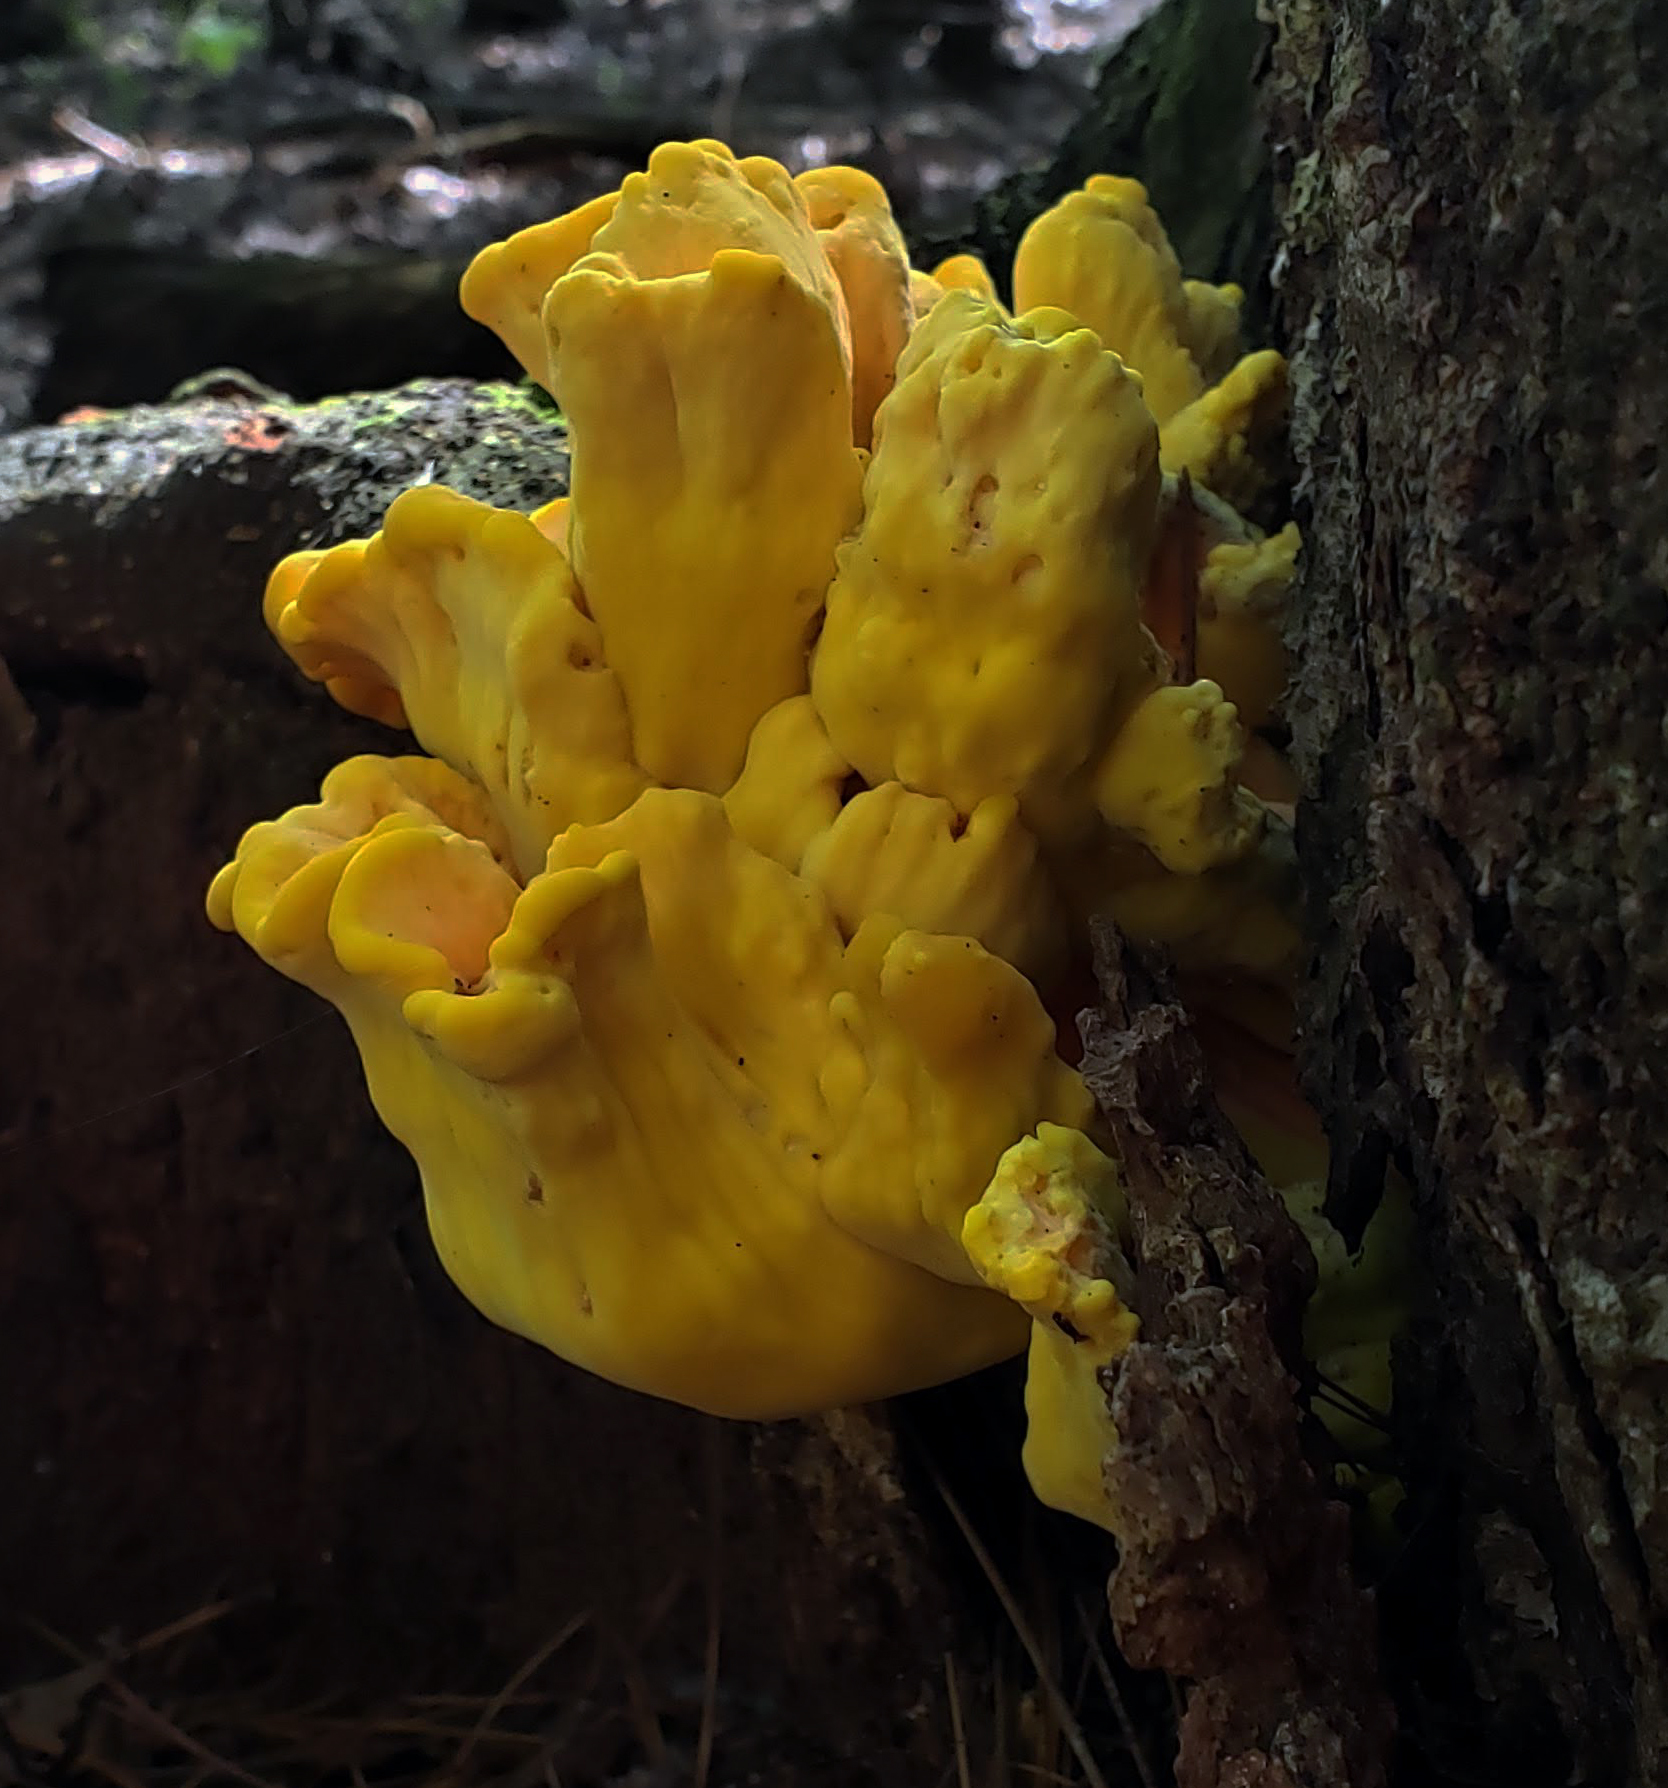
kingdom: Fungi
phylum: Basidiomycota
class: Agaricomycetes
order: Polyporales
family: Laetiporaceae
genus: Laetiporus
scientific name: Laetiporus sulphureus
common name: Chicken of the woods
